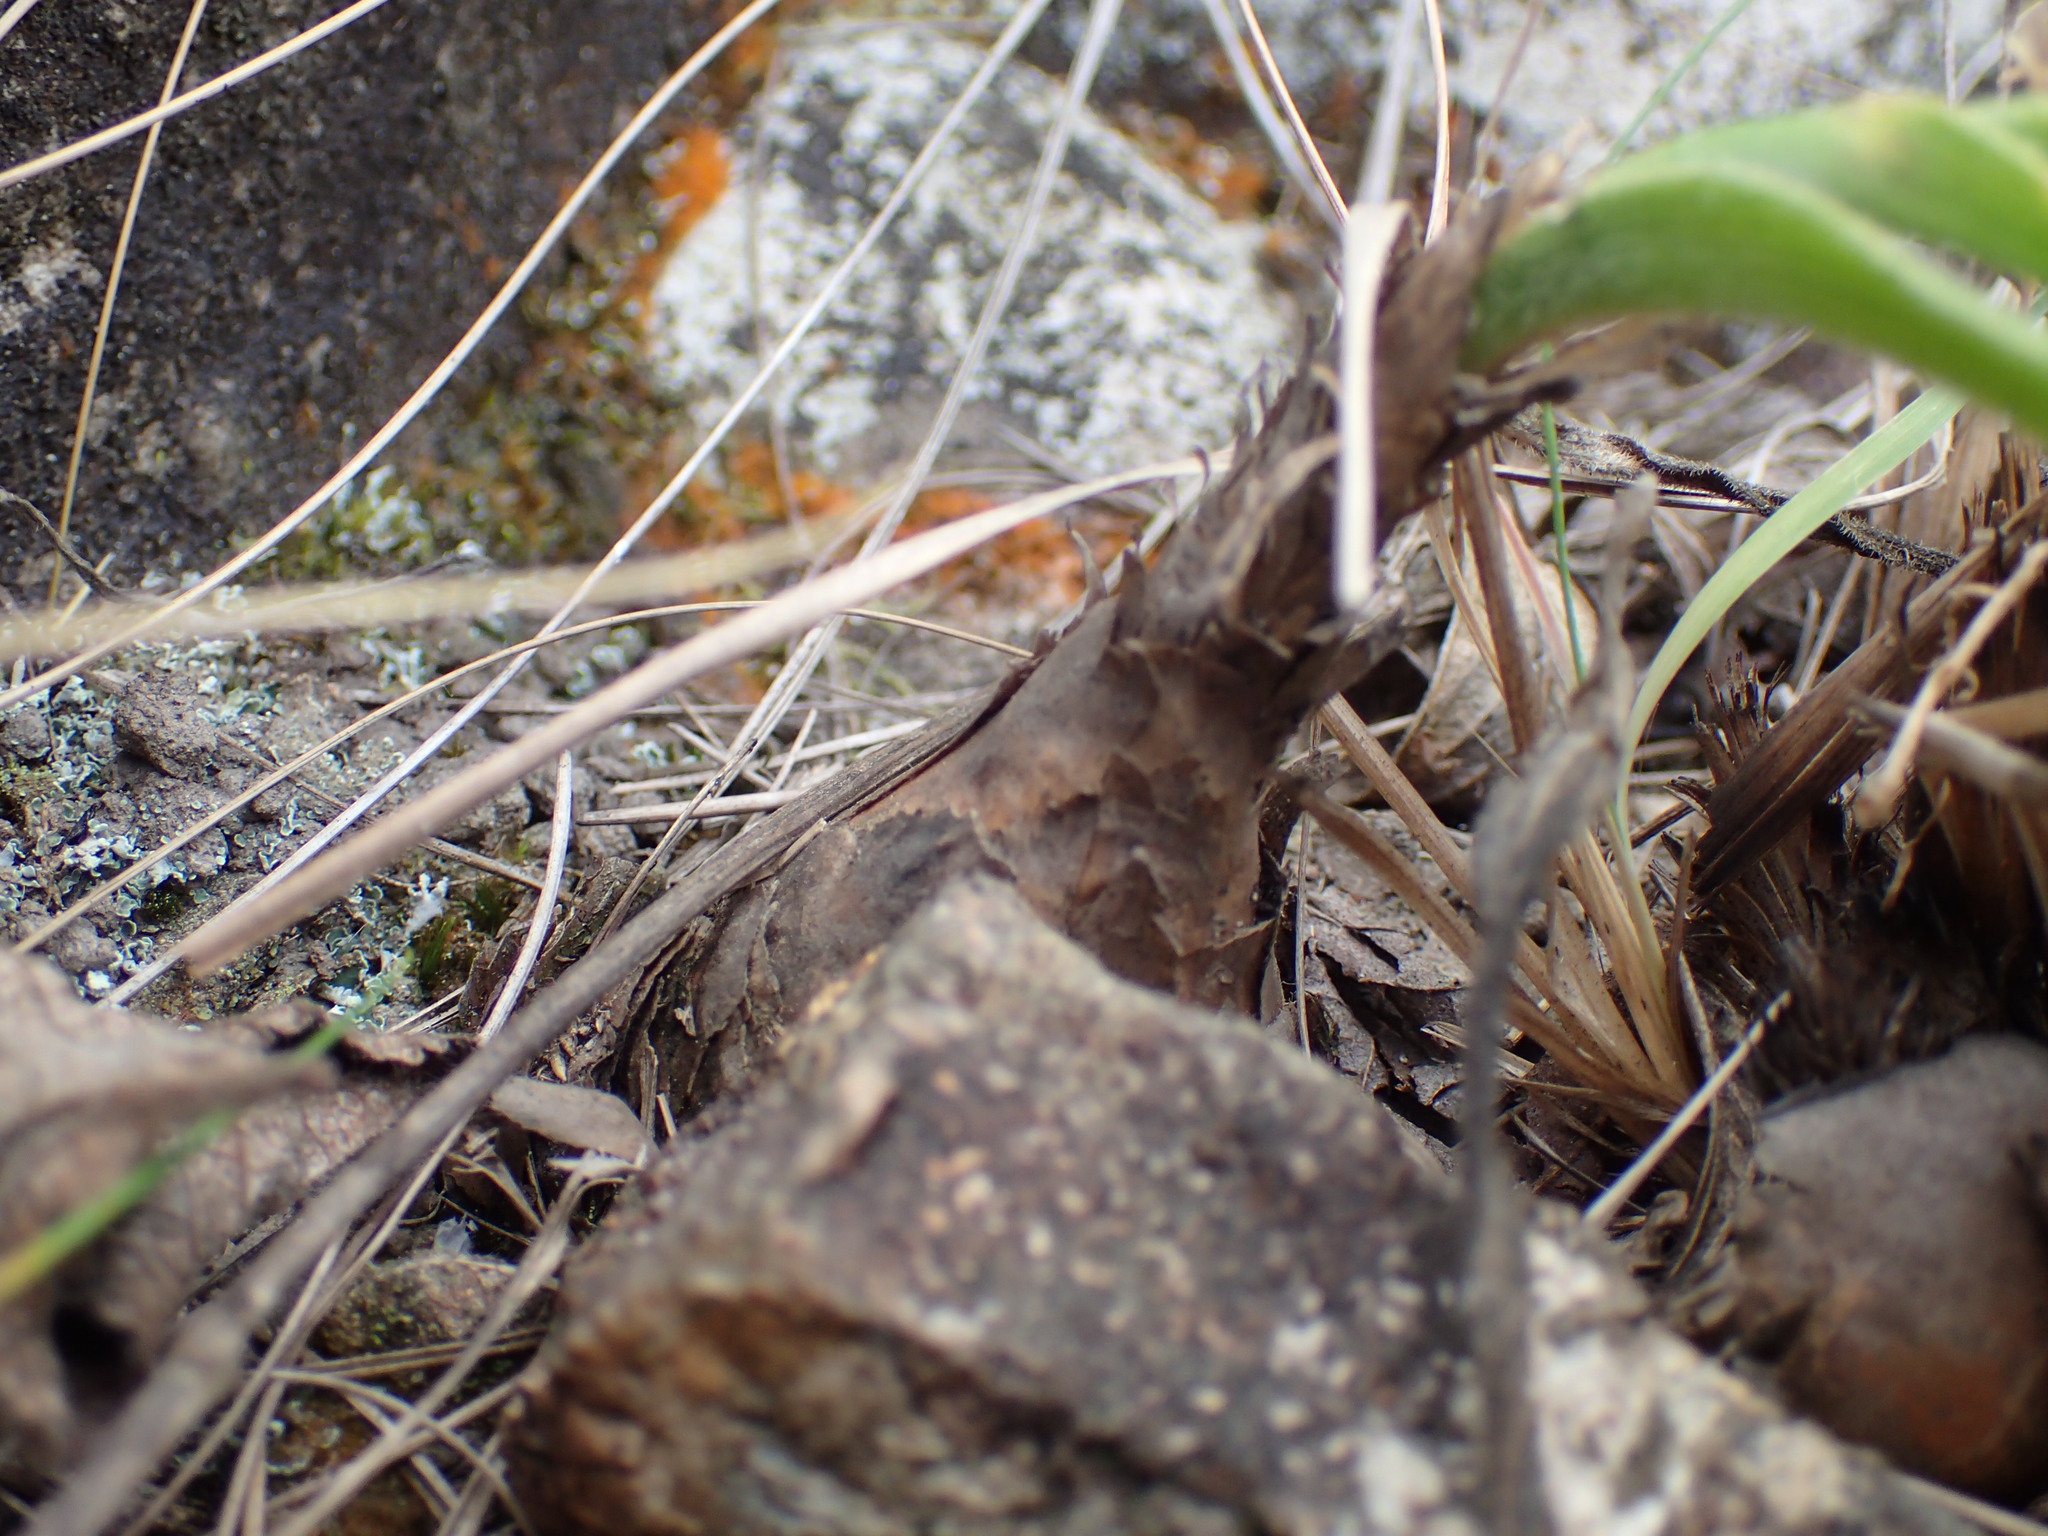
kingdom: Plantae
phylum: Tracheophyta
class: Liliopsida
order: Asparagales
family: Asparagaceae
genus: Merwilla
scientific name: Merwilla plumbea
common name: Blue-squill
